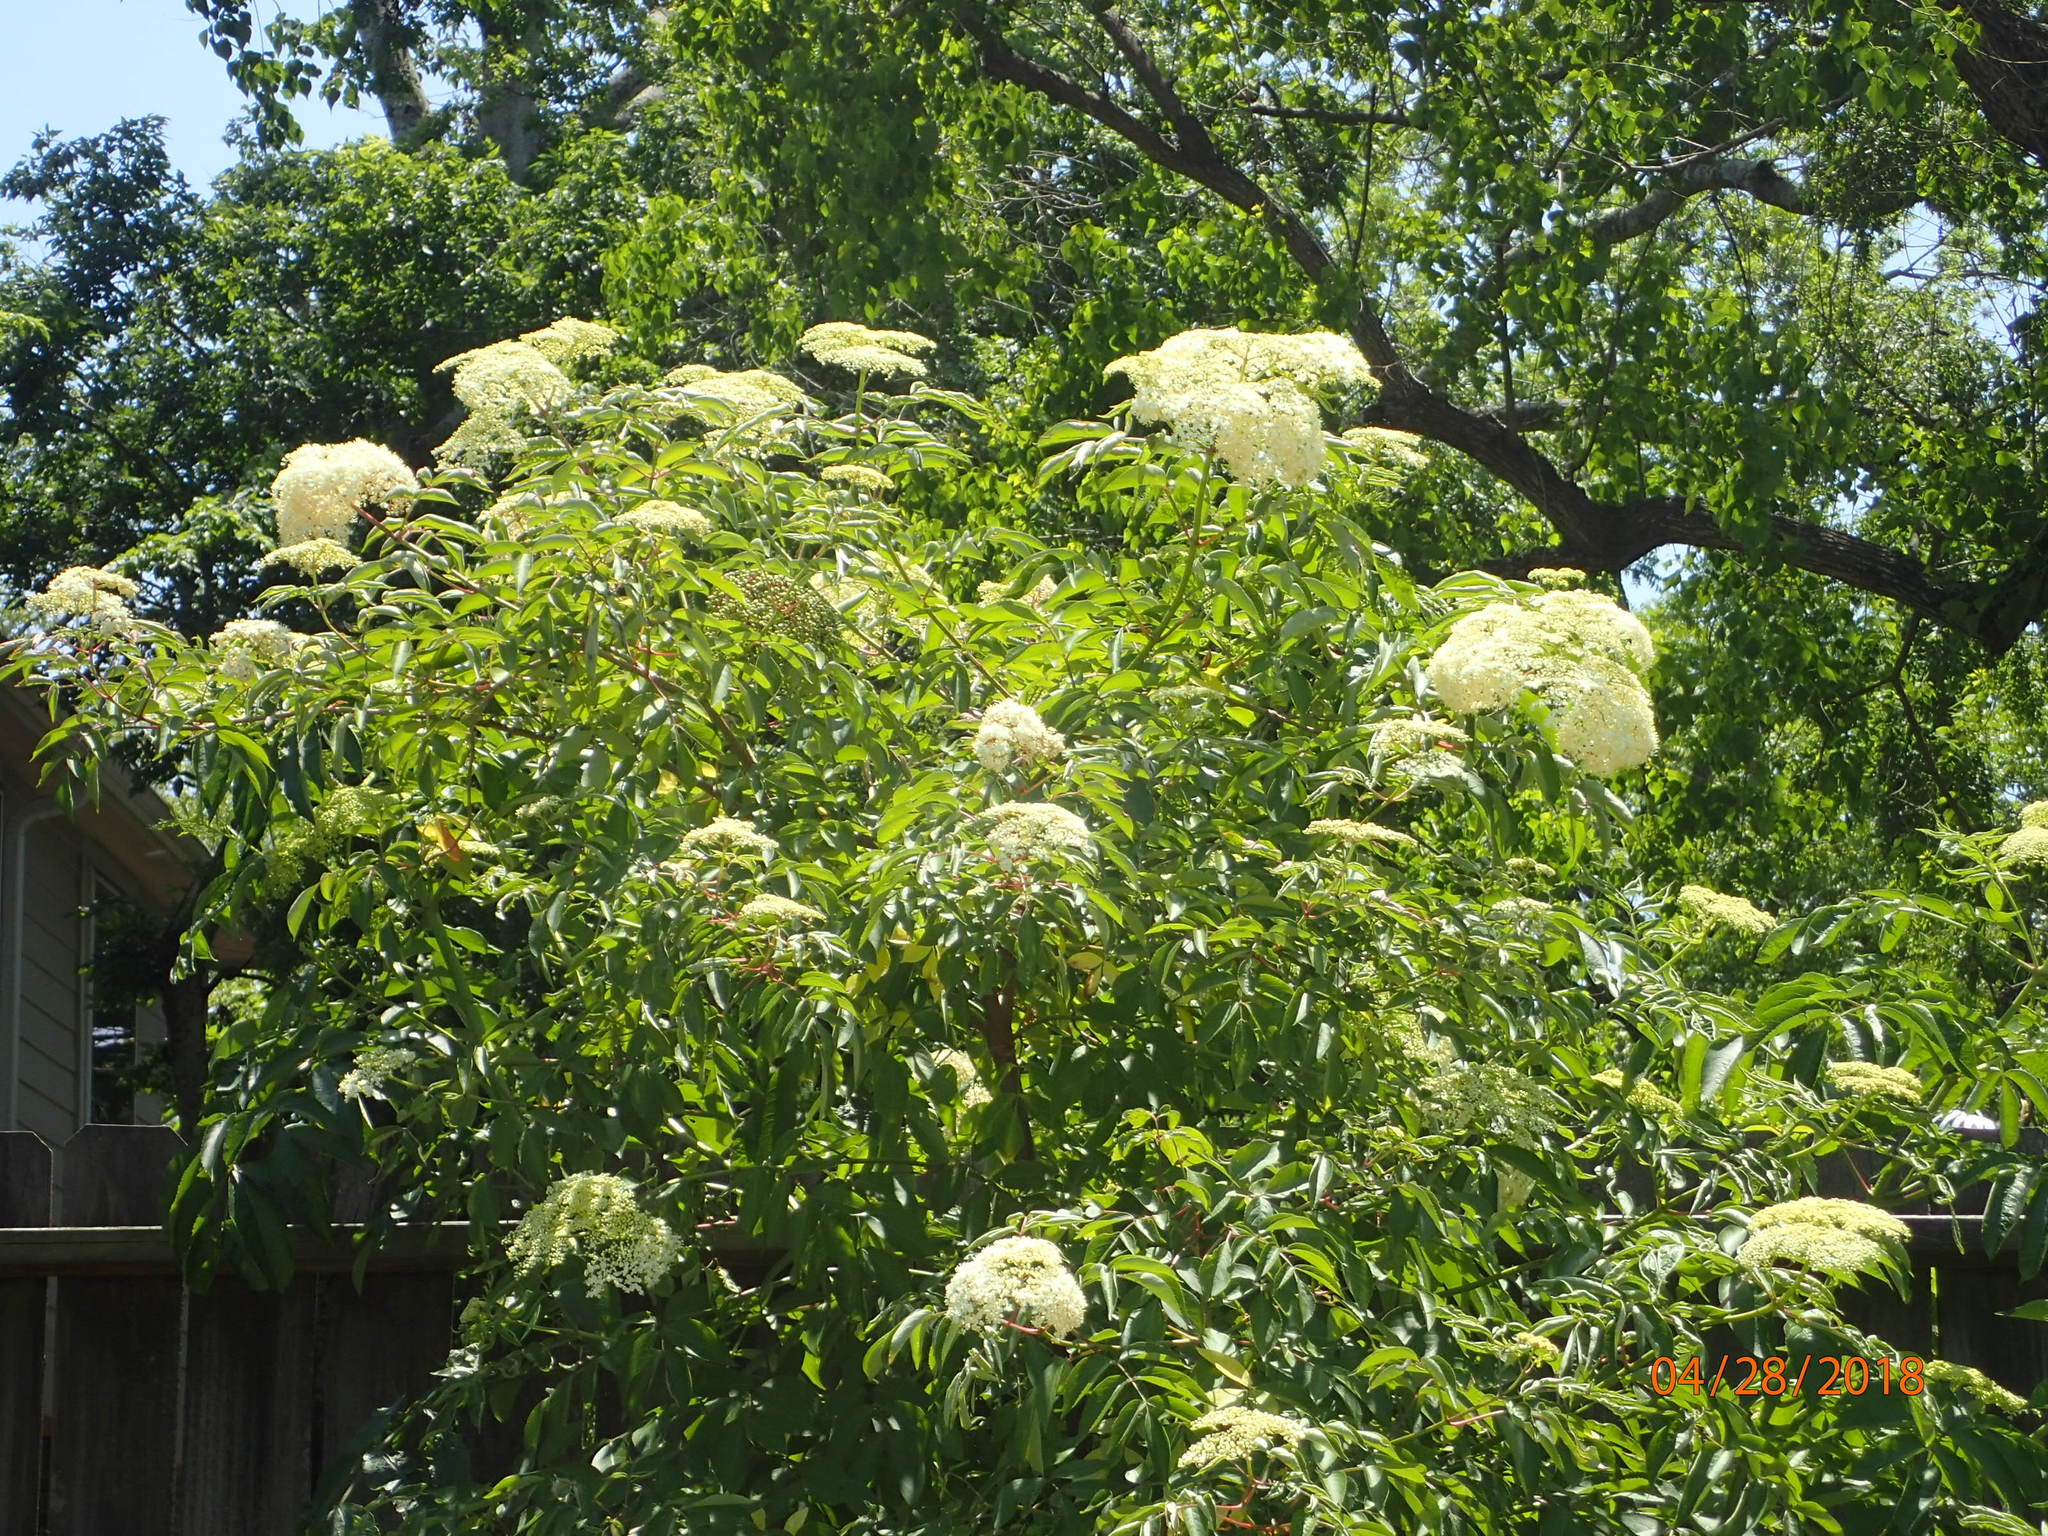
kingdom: Plantae
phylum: Tracheophyta
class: Magnoliopsida
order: Dipsacales
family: Viburnaceae
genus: Sambucus
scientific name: Sambucus canadensis
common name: American elder
